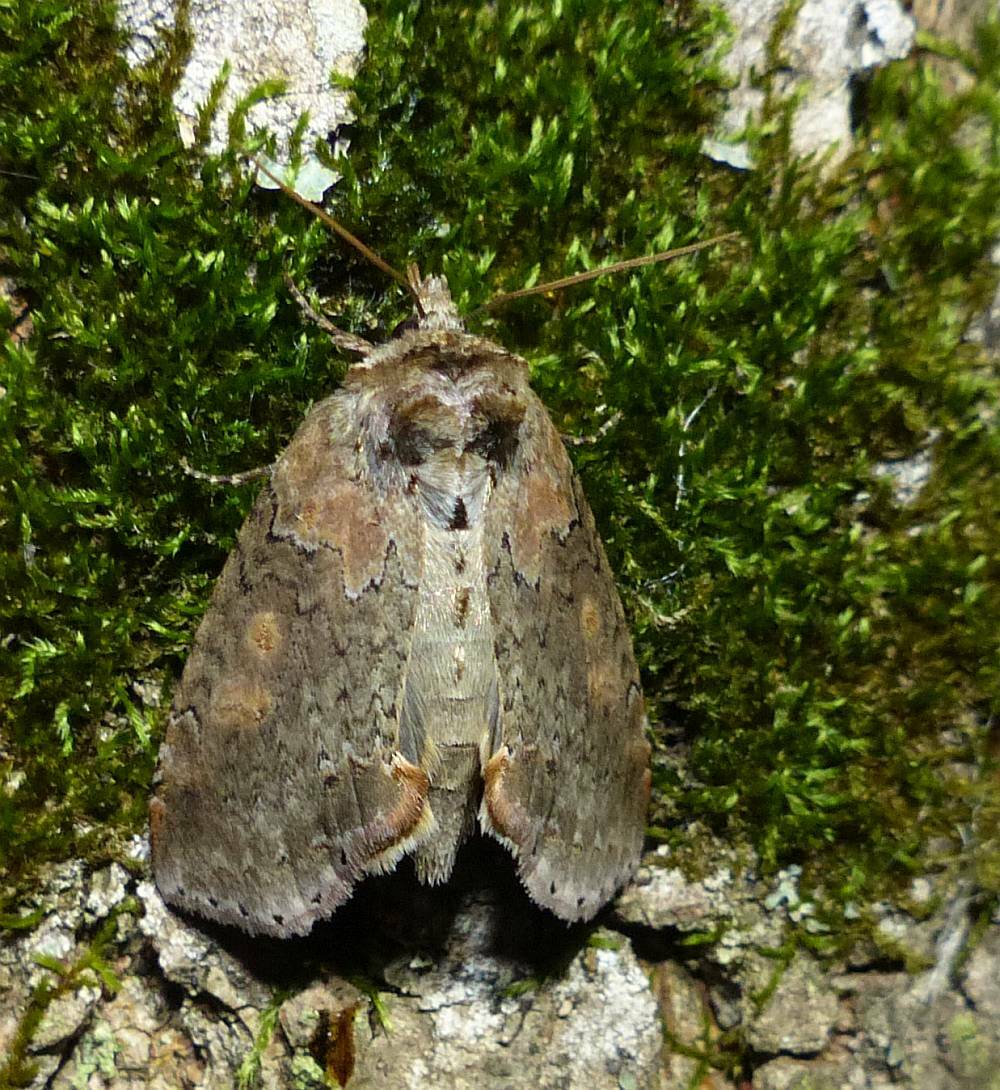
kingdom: Animalia
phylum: Arthropoda
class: Insecta
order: Lepidoptera
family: Drepanidae
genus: Pseudothyatira
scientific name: Pseudothyatira cymatophoroides
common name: Tufted thyatirid moth
